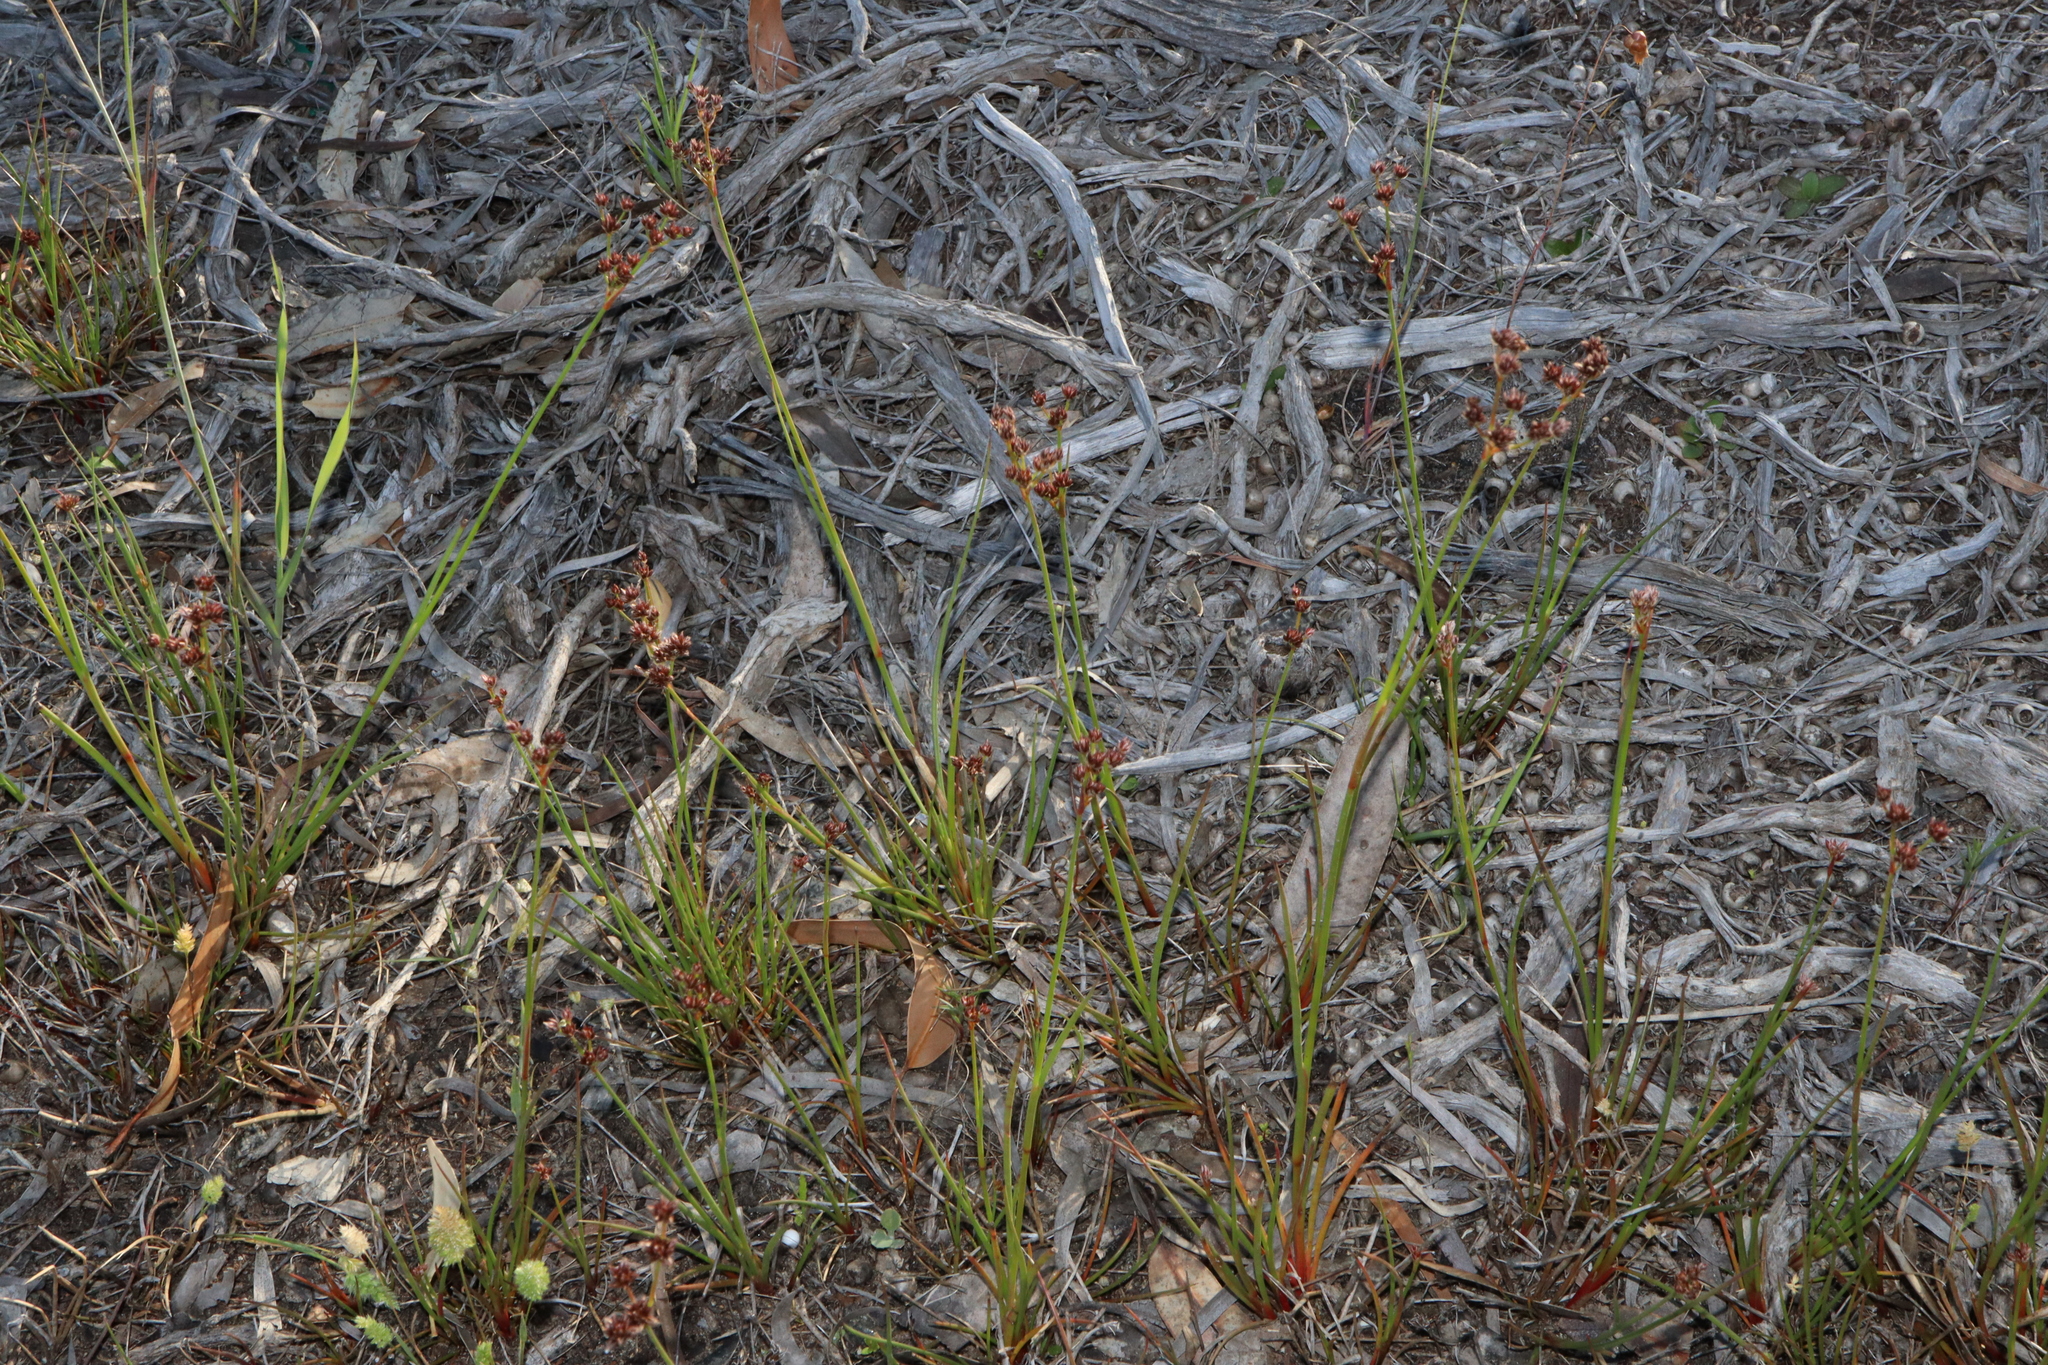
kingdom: Plantae
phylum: Tracheophyta
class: Liliopsida
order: Poales
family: Juncaceae
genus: Juncus
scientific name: Juncus articulatus
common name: Jointed rush
